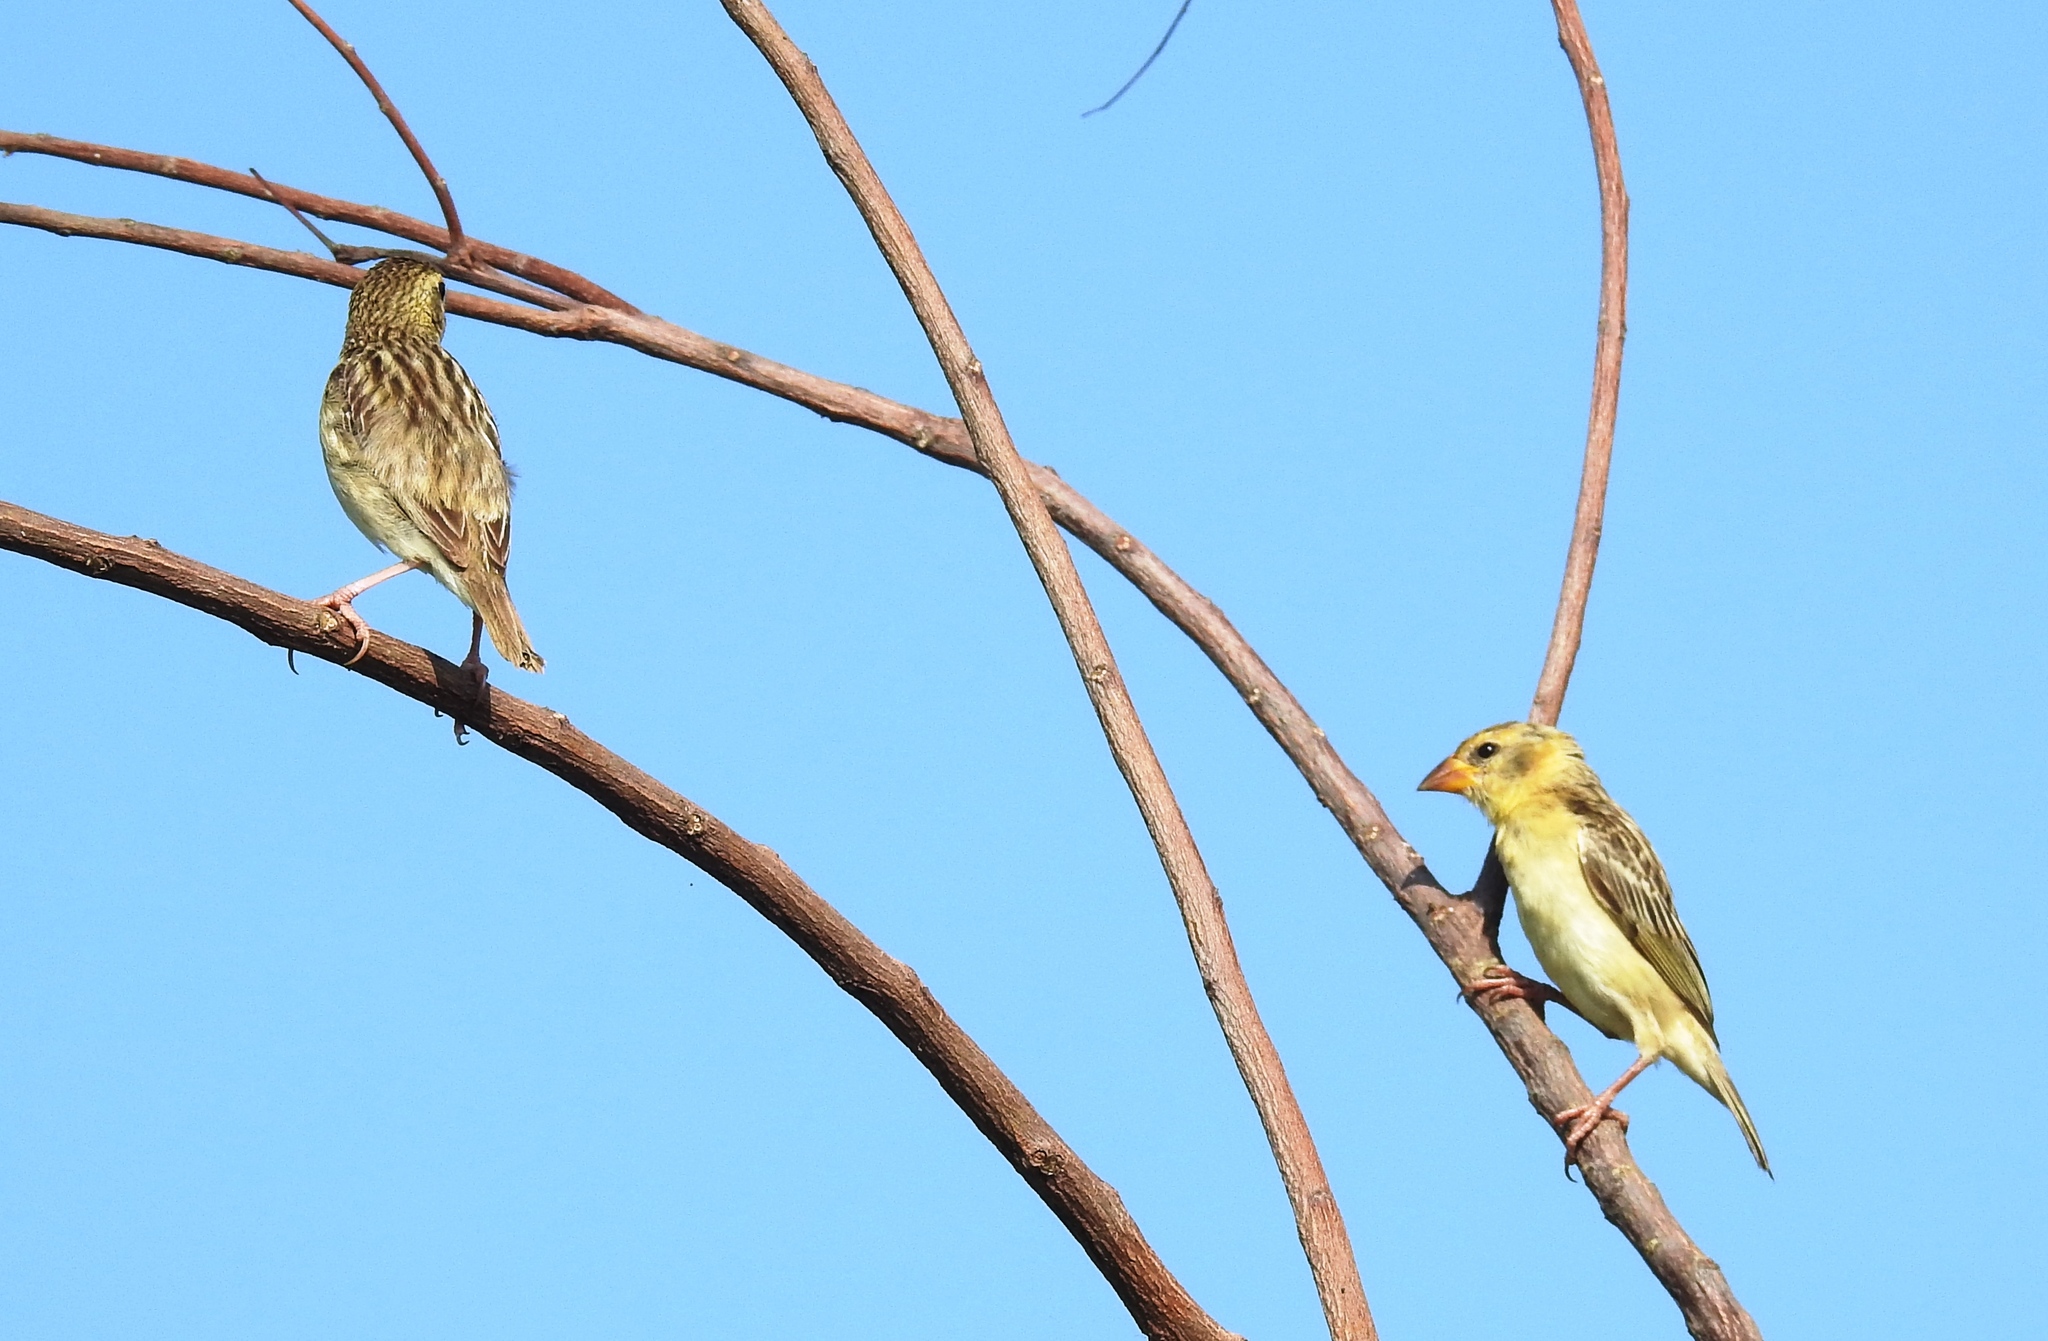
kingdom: Animalia
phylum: Chordata
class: Aves
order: Passeriformes
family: Ploceidae
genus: Ploceus
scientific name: Ploceus philippinus
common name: Baya weaver
